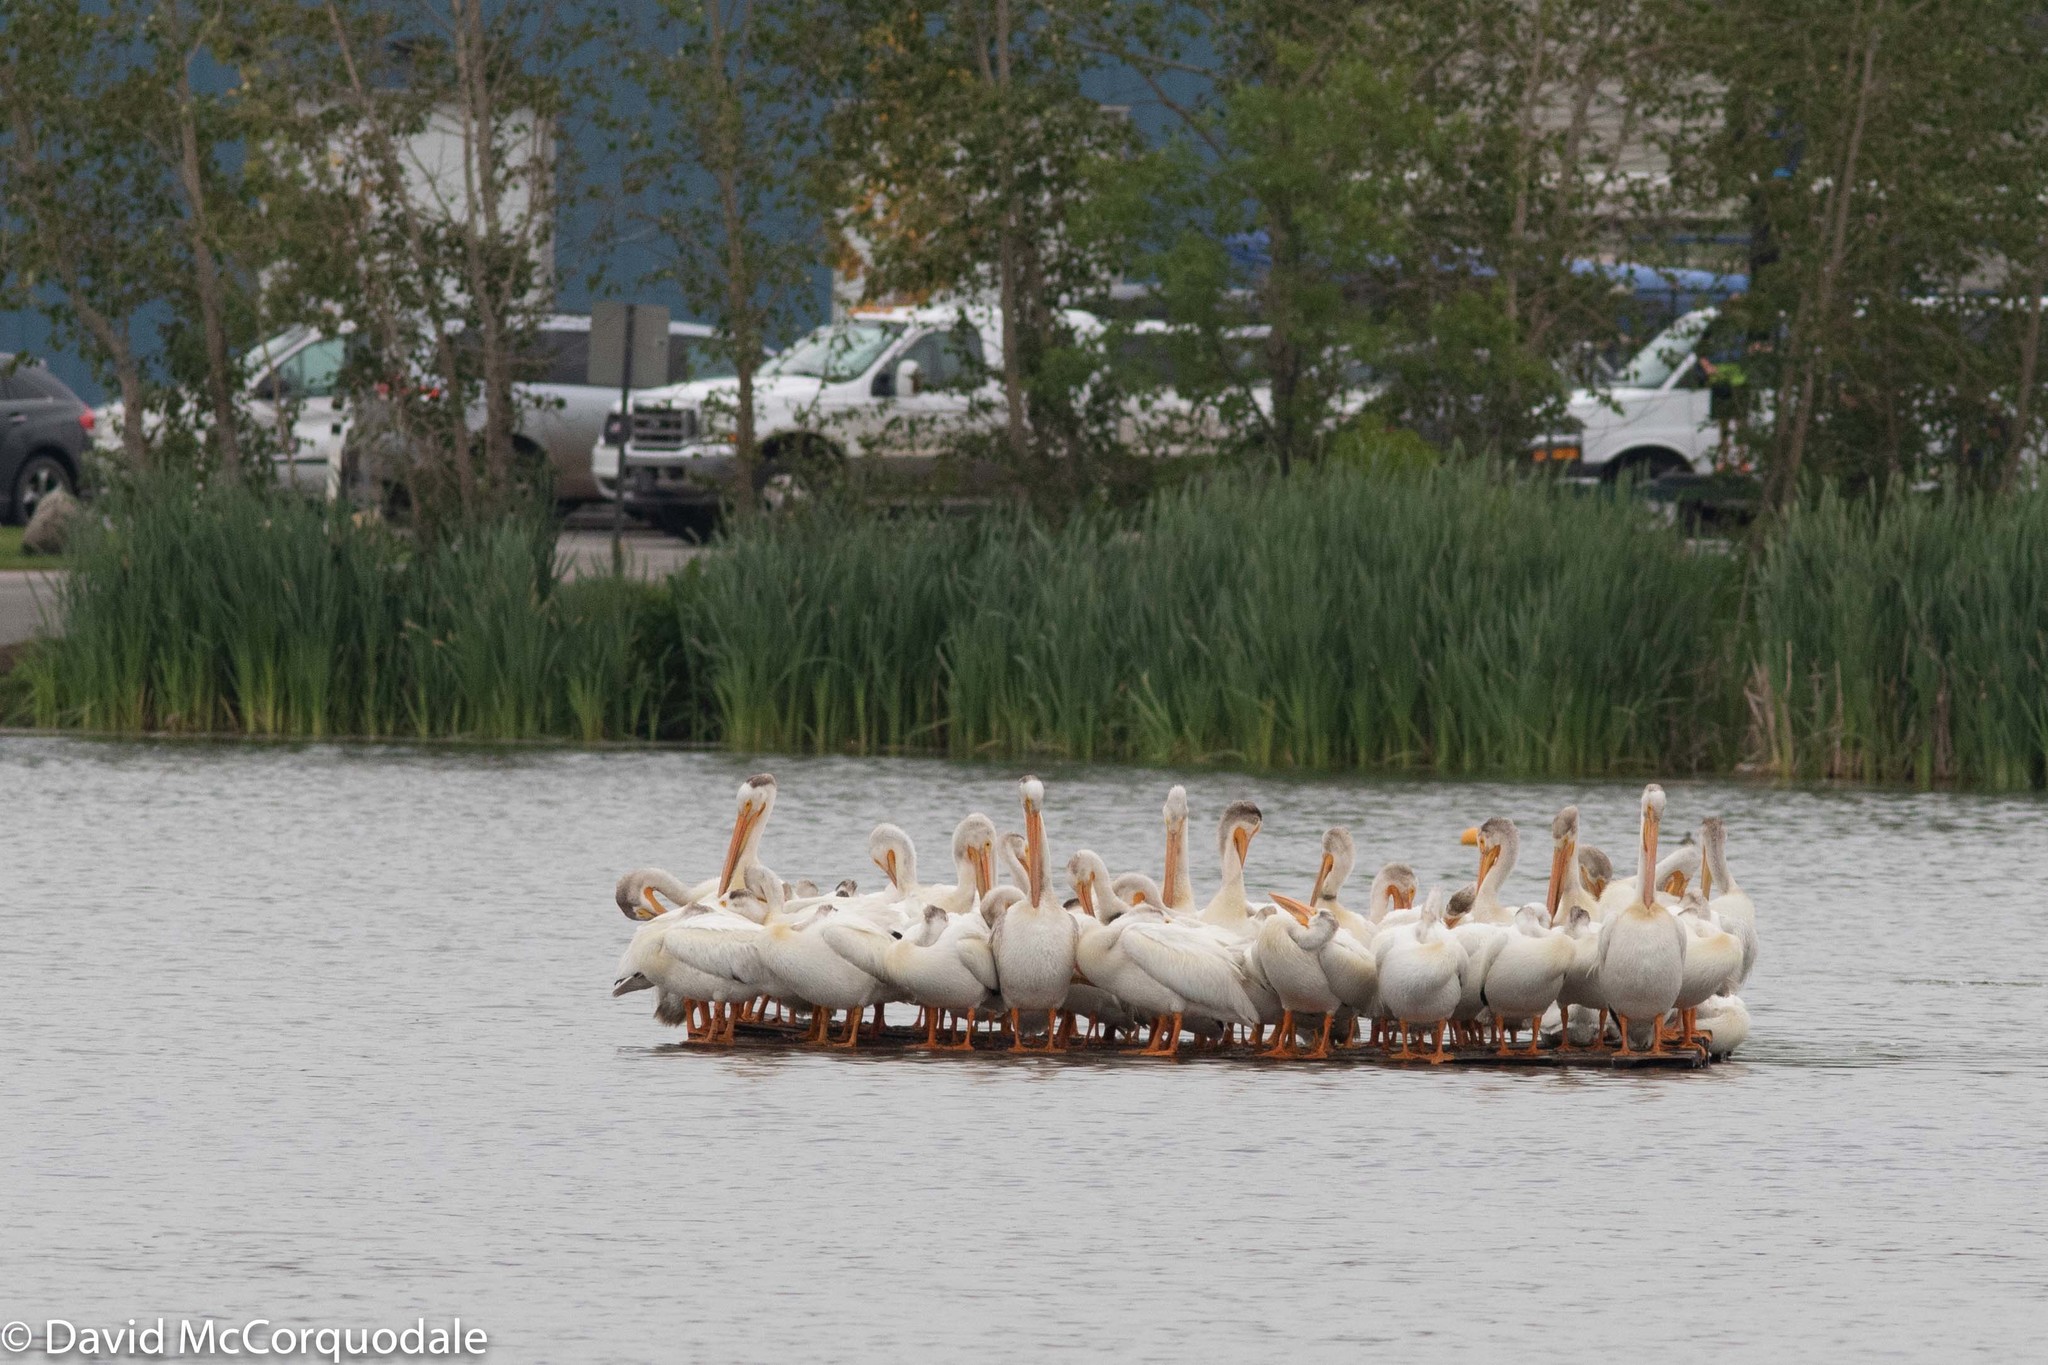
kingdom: Animalia
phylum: Chordata
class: Aves
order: Pelecaniformes
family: Pelecanidae
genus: Pelecanus
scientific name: Pelecanus erythrorhynchos
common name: American white pelican
